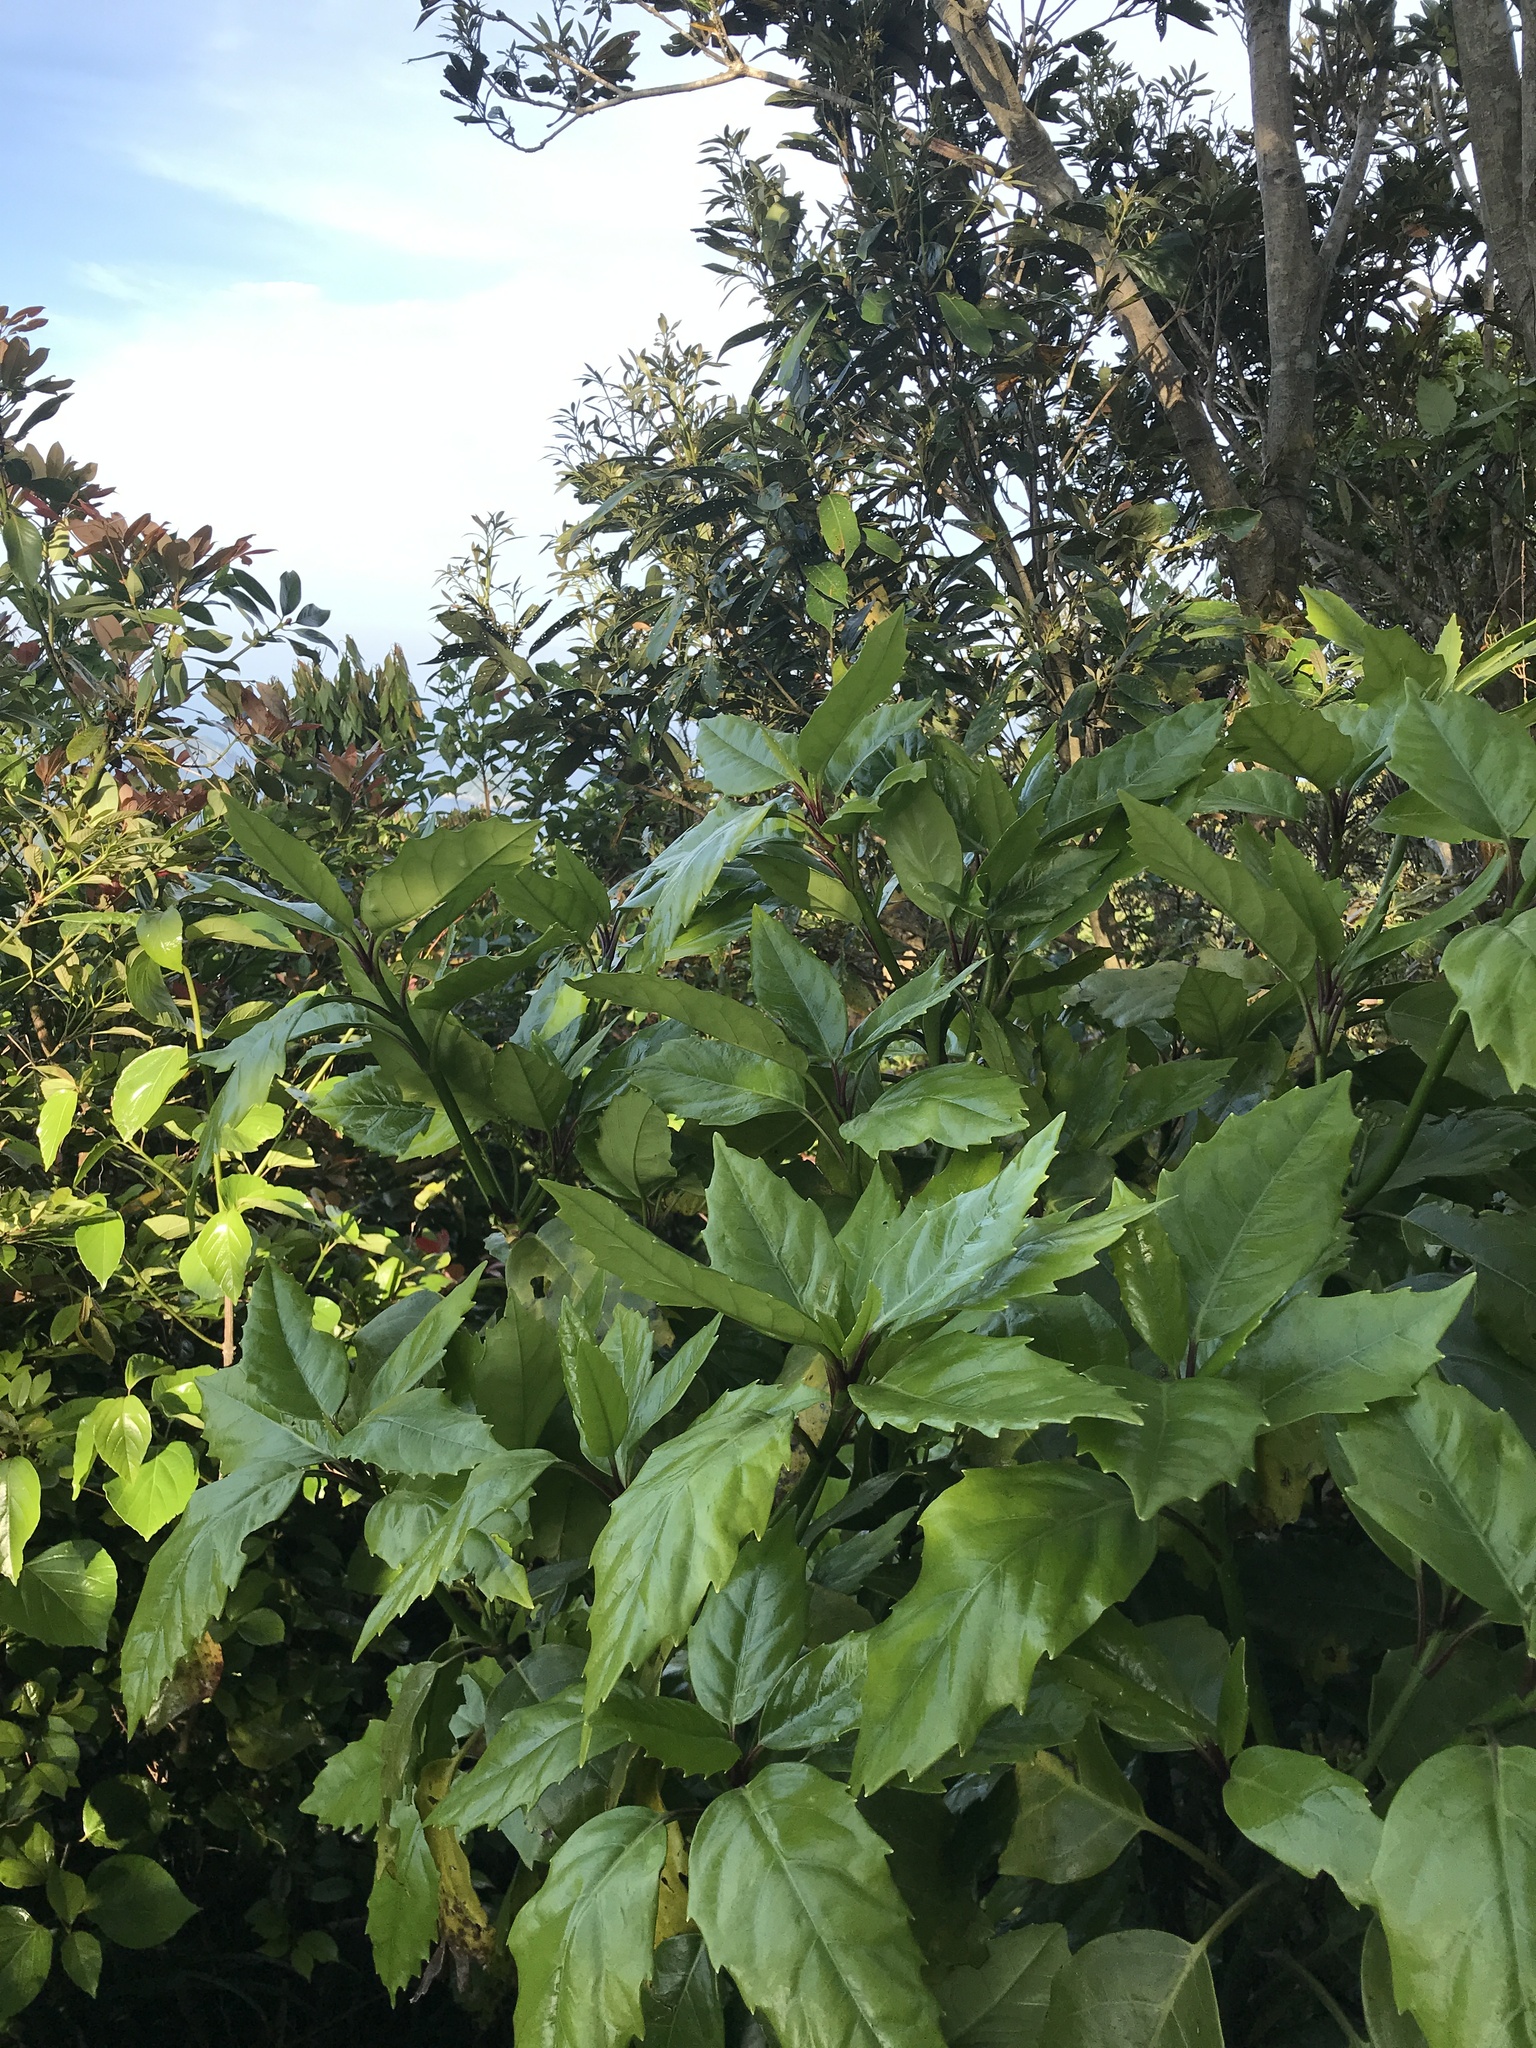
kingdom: Plantae
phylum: Tracheophyta
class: Magnoliopsida
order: Garryales
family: Garryaceae
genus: Aucuba
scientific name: Aucuba japonica
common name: Spotted-laurel
